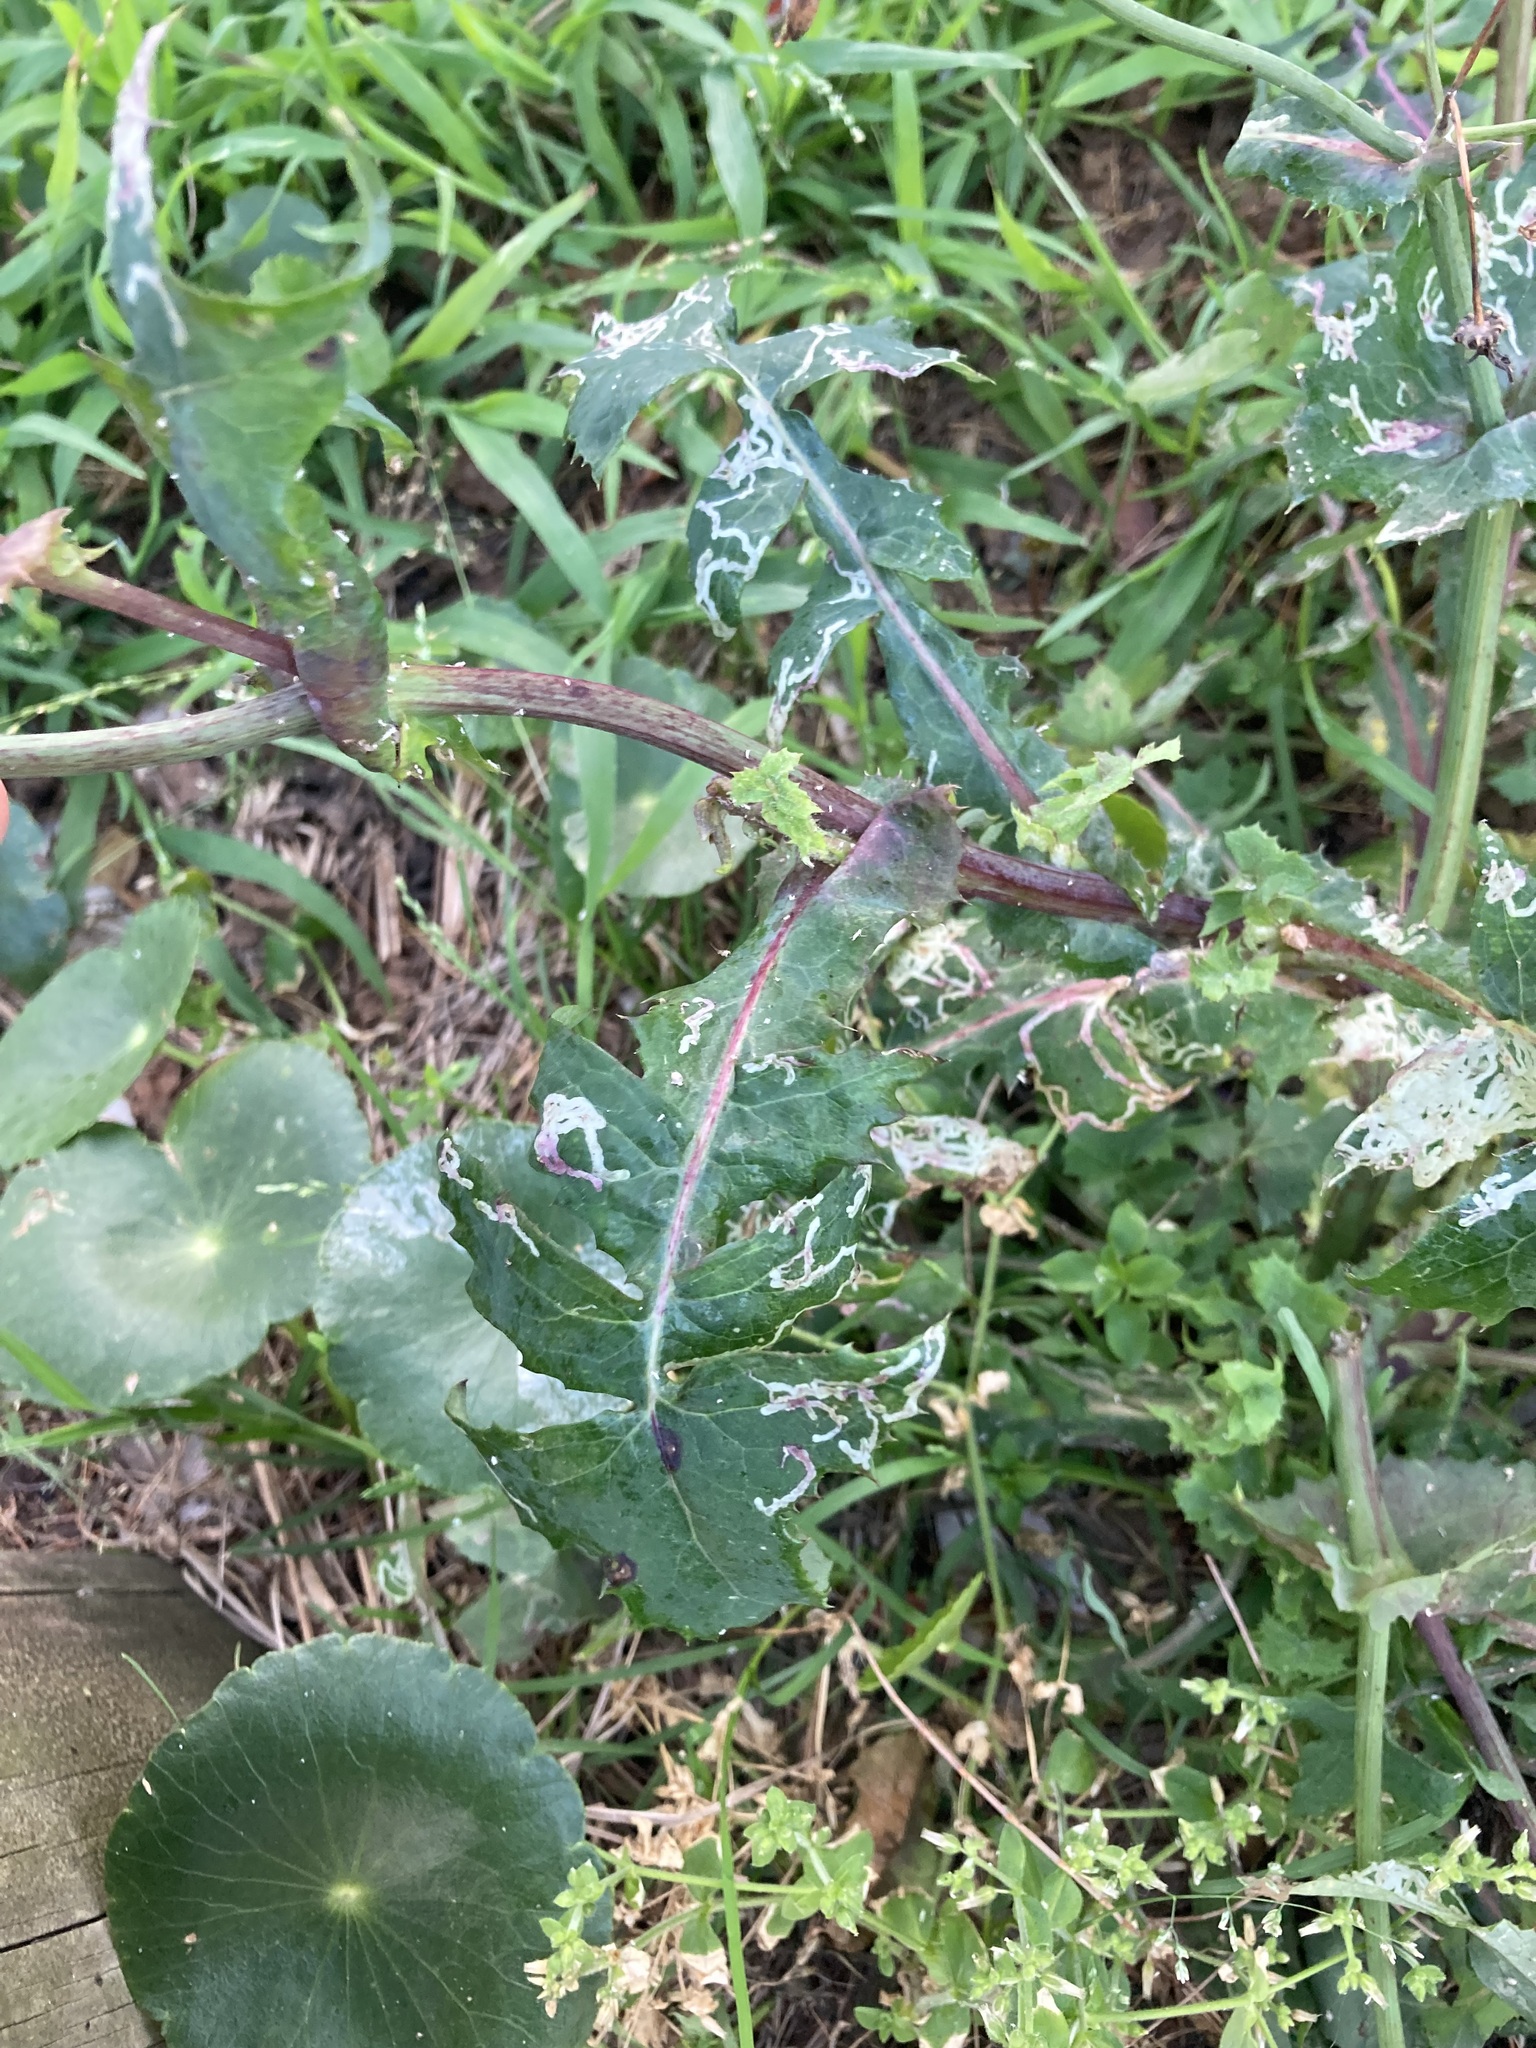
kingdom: Plantae
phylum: Tracheophyta
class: Magnoliopsida
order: Asterales
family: Asteraceae
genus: Sonchus
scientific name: Sonchus oleraceus
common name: Common sowthistle
